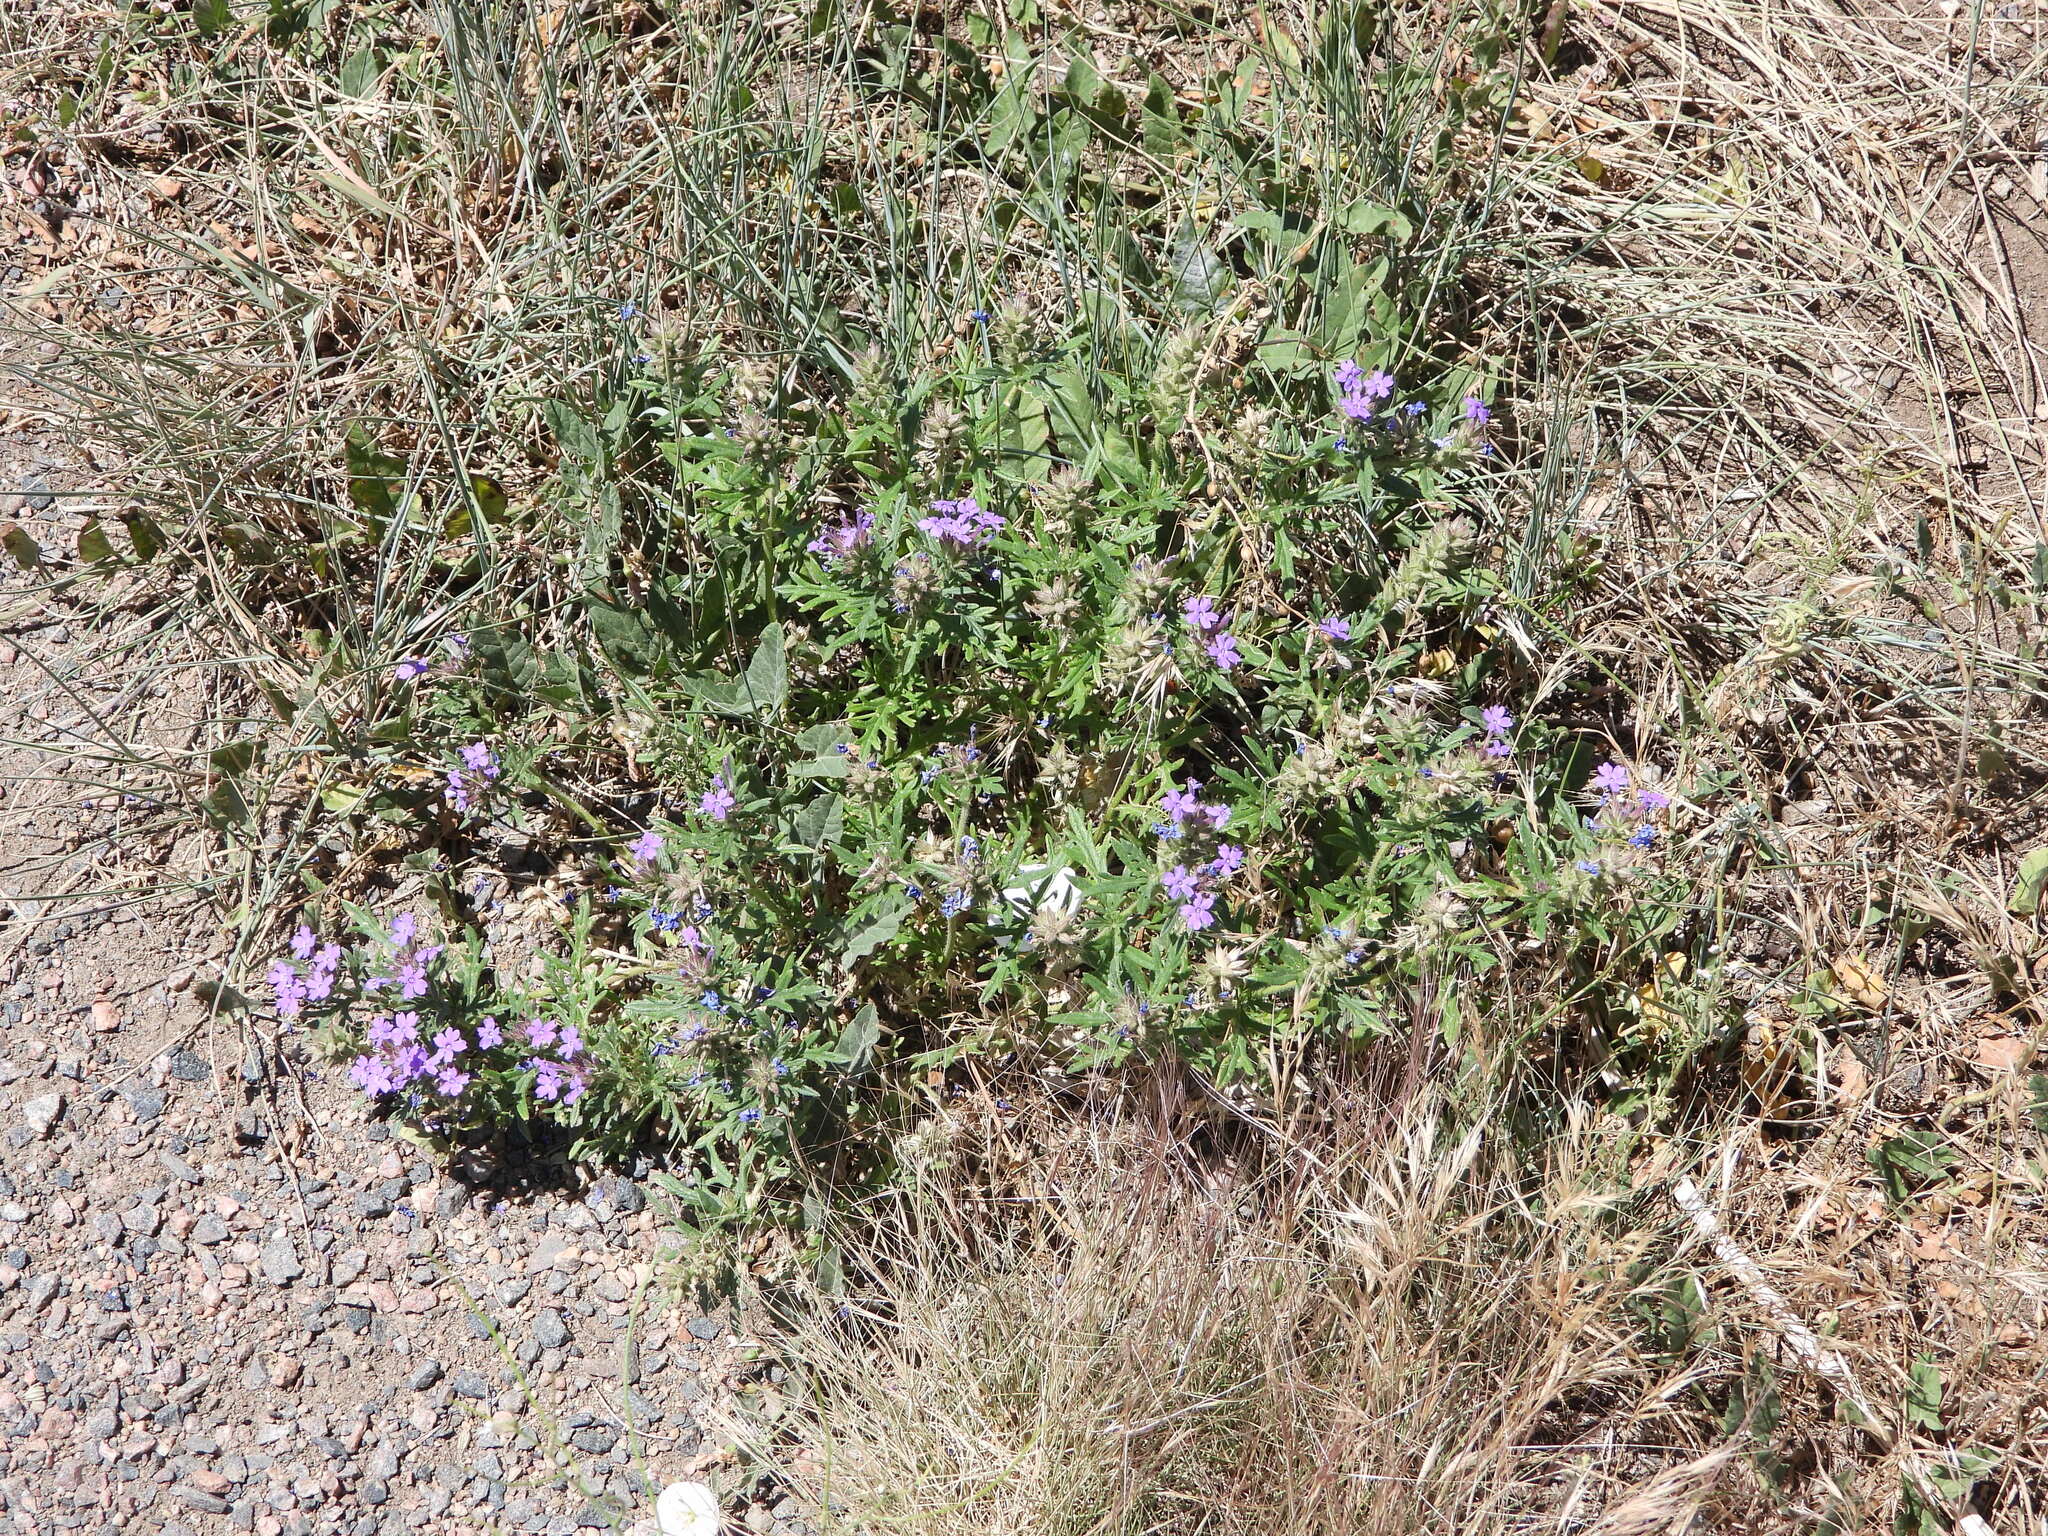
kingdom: Plantae
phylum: Tracheophyta
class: Magnoliopsida
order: Lamiales
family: Verbenaceae
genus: Verbena
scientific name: Verbena bipinnatifida
